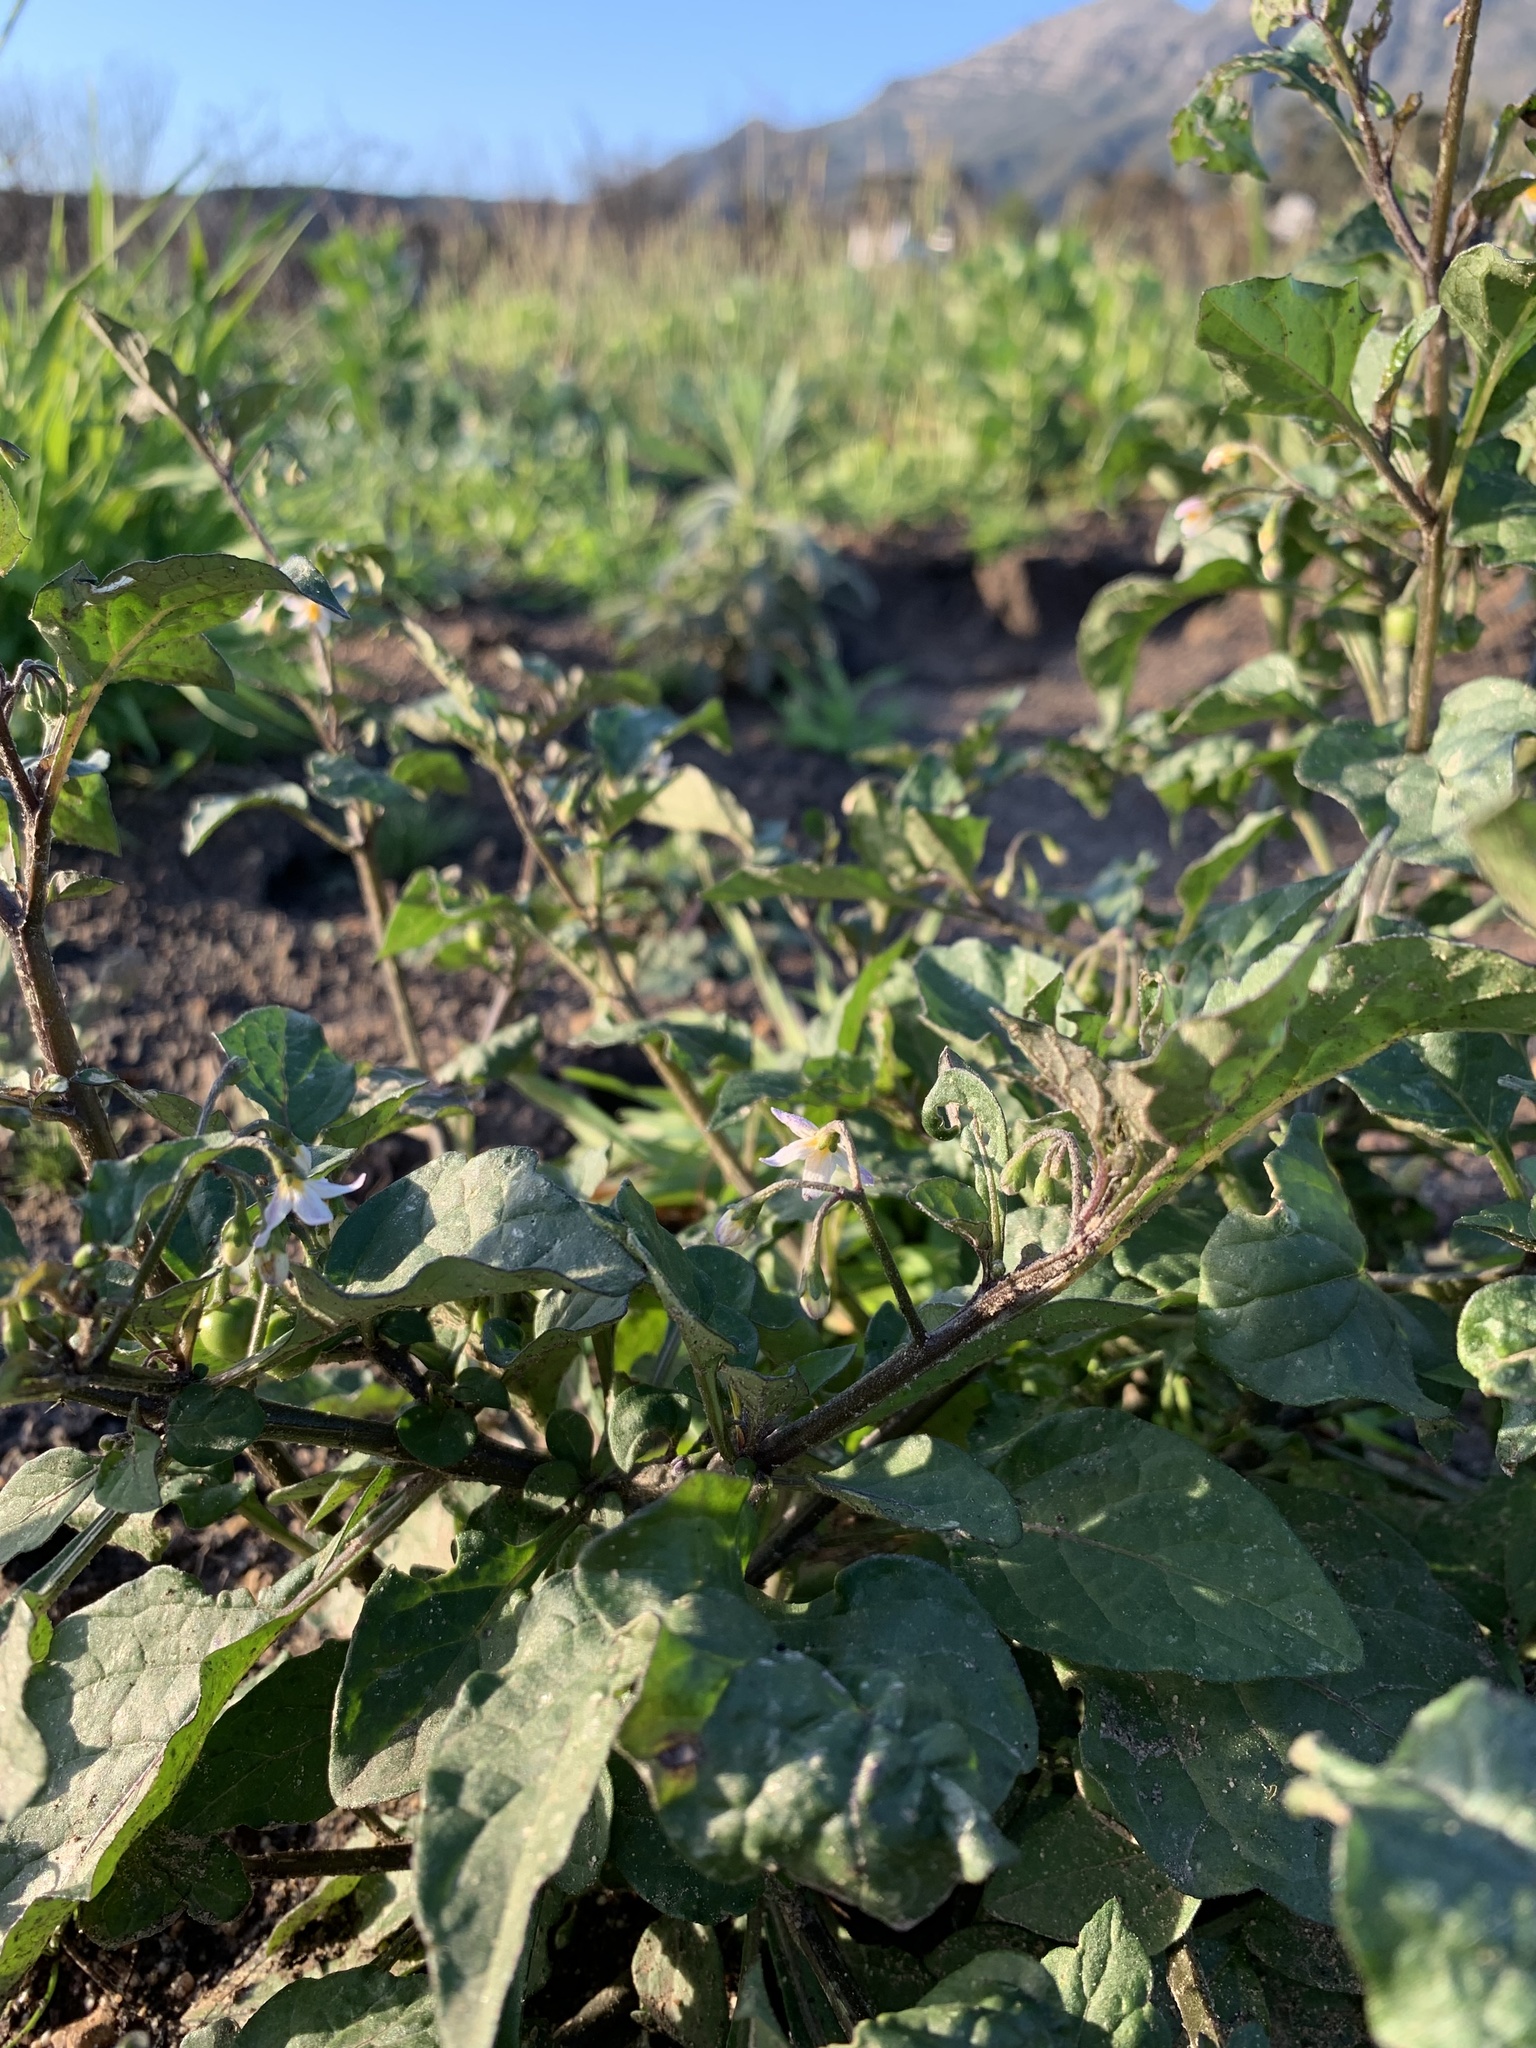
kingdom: Plantae
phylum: Tracheophyta
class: Magnoliopsida
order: Solanales
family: Solanaceae
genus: Solanum
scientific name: Solanum nigrum
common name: Black nightshade
